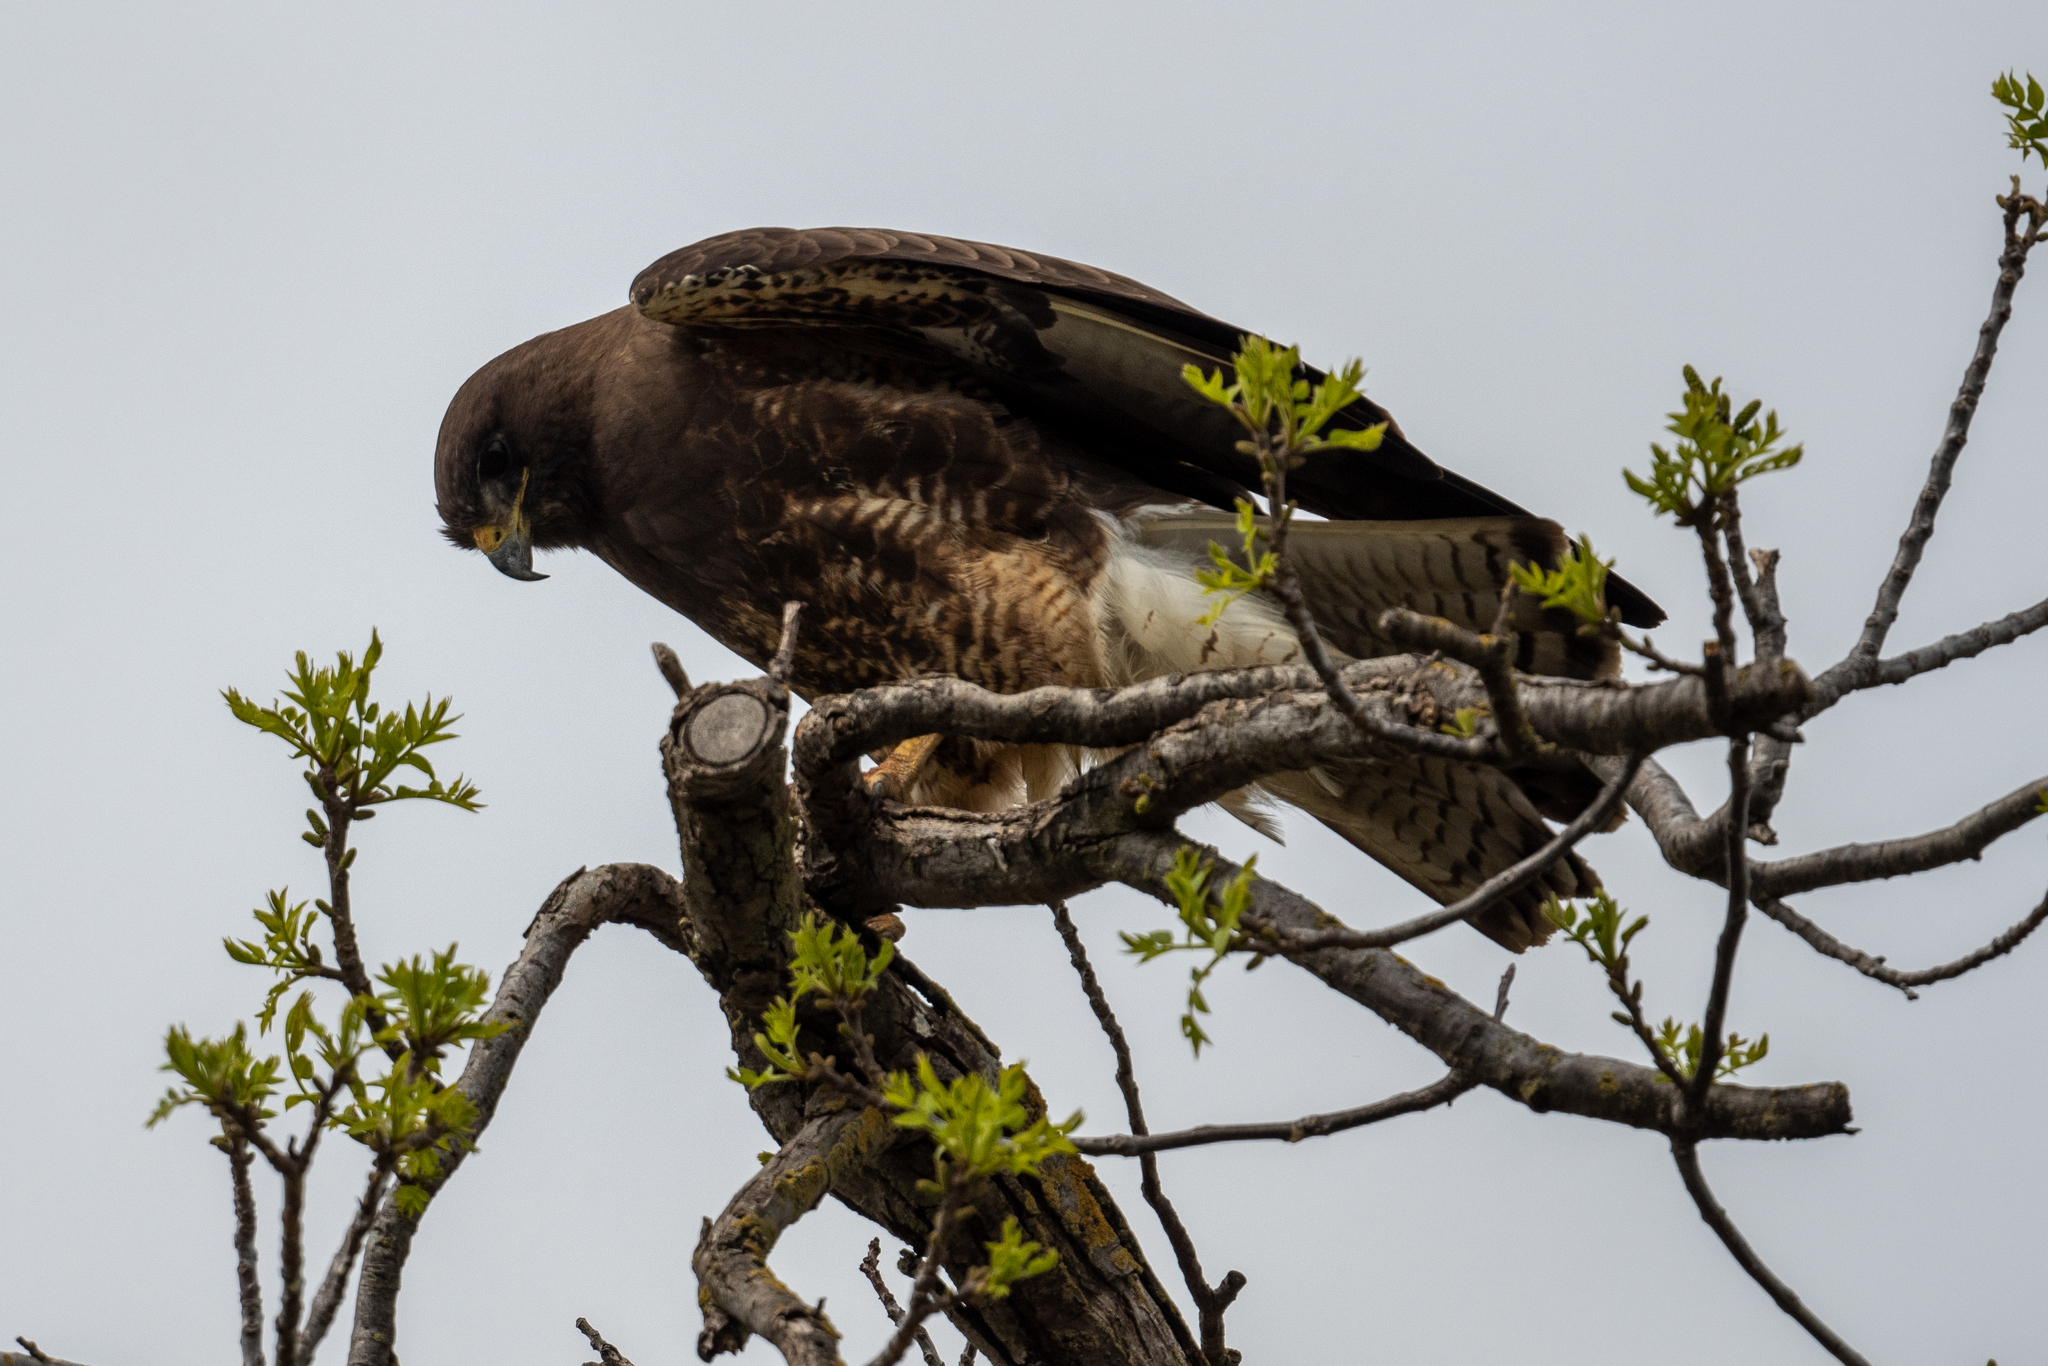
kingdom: Animalia
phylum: Chordata
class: Aves
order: Accipitriformes
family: Accipitridae
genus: Buteo
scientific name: Buteo swainsoni
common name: Swainson's hawk
